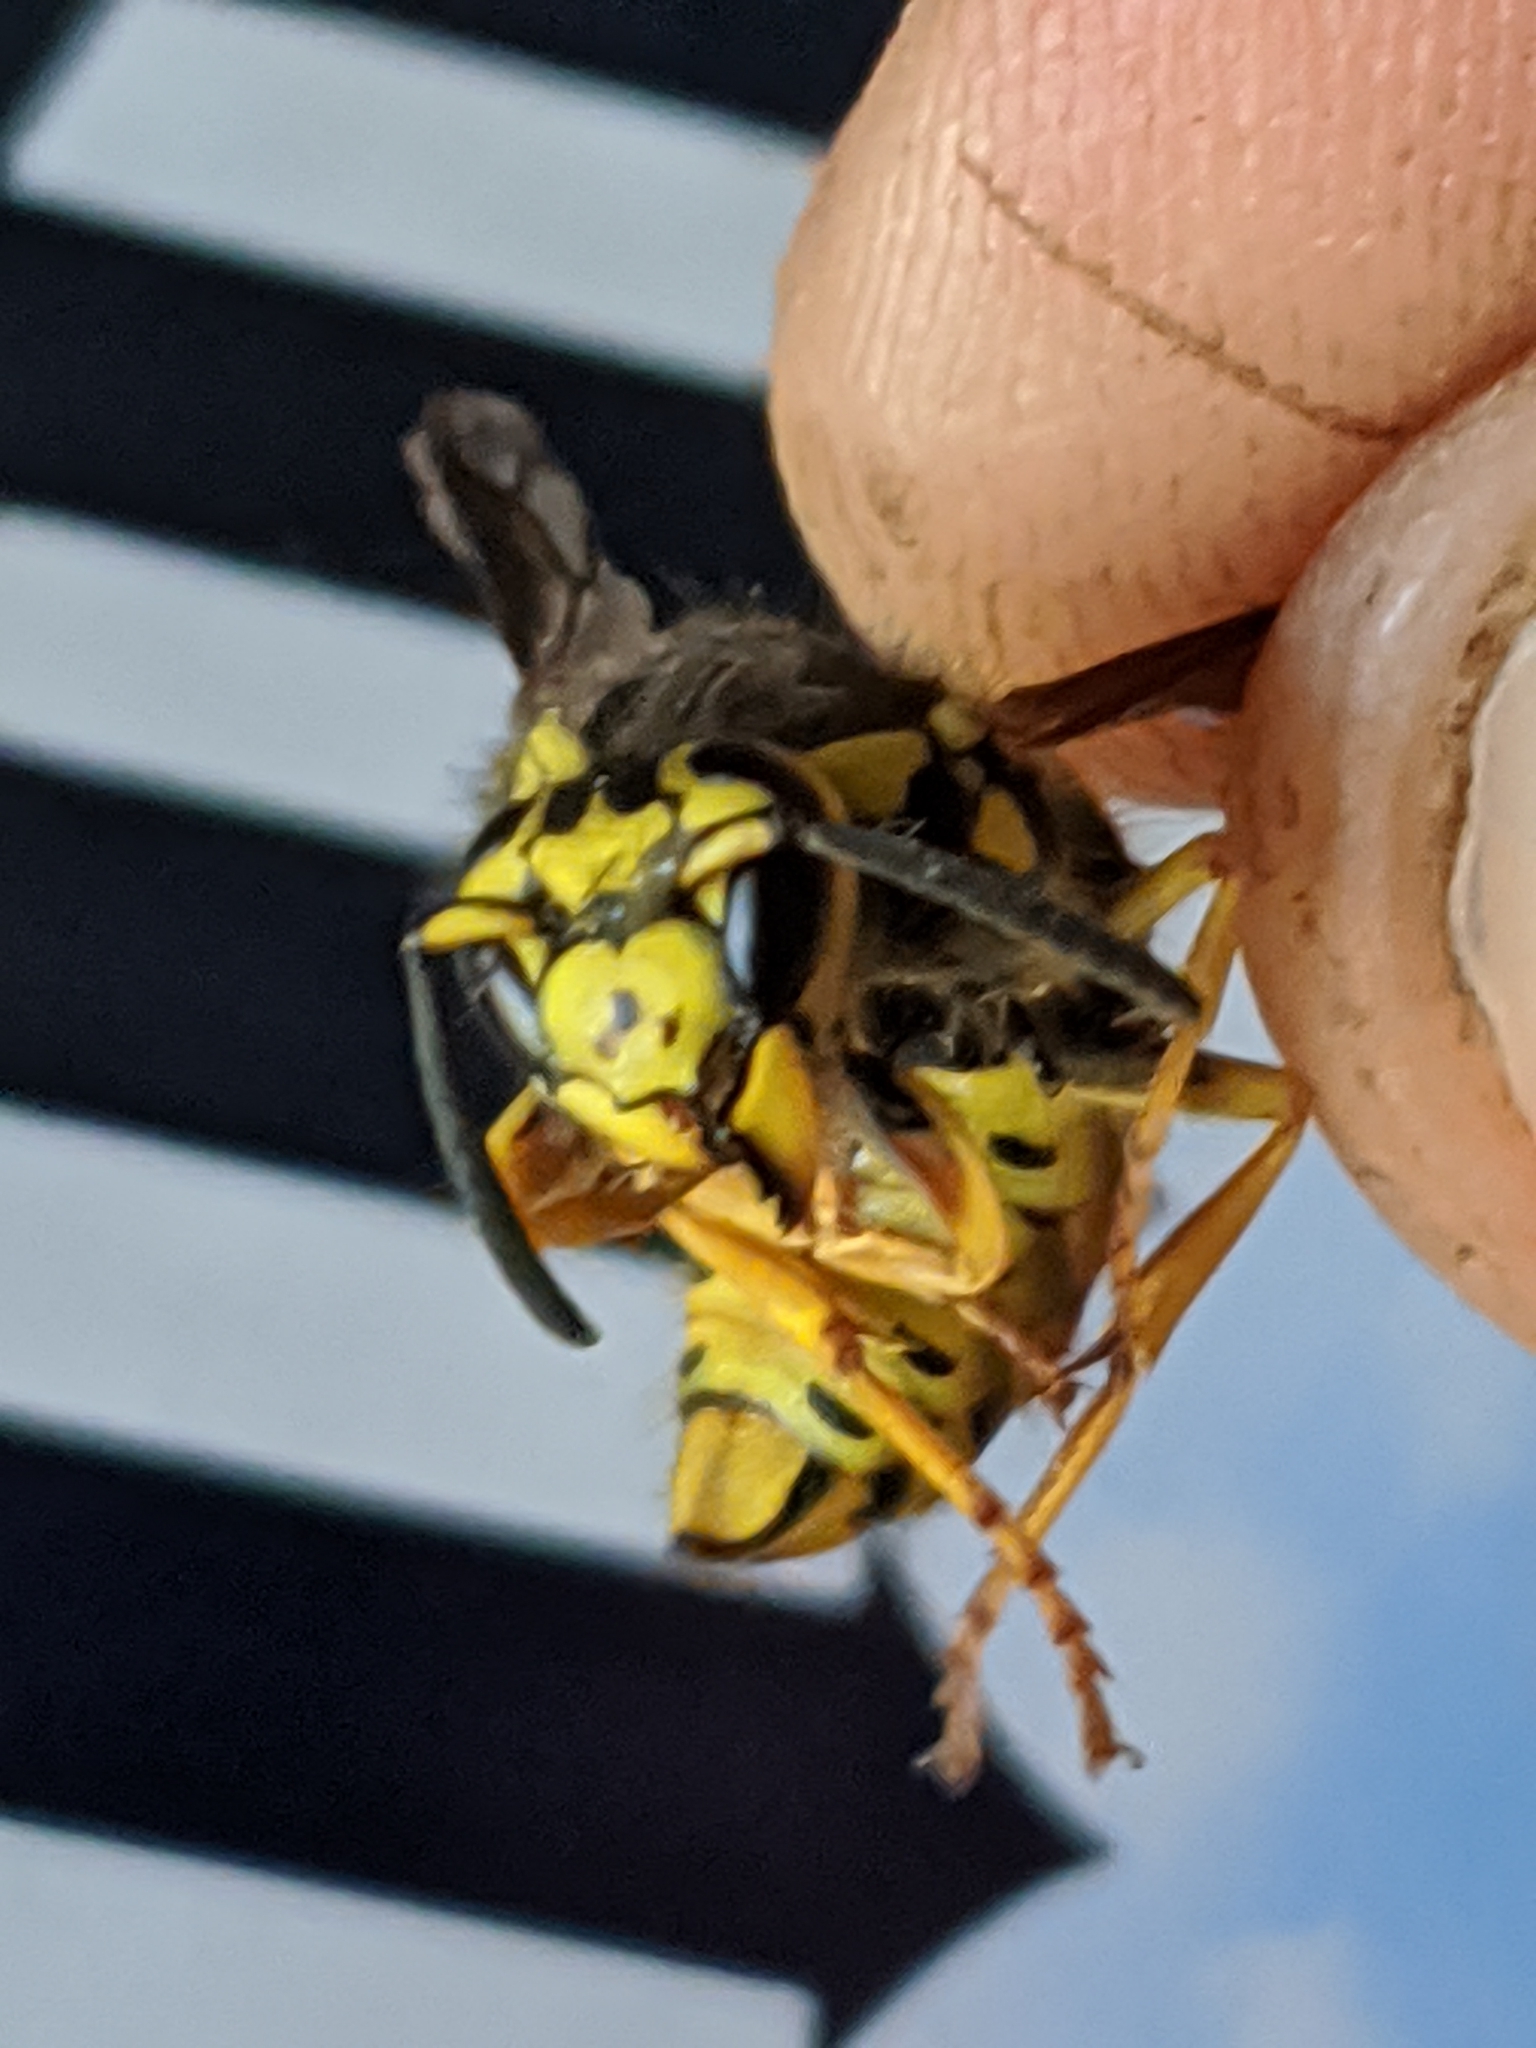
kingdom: Animalia
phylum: Arthropoda
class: Insecta
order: Hymenoptera
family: Vespidae
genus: Vespula
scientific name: Vespula pensylvanica
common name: Western yellowjacket
